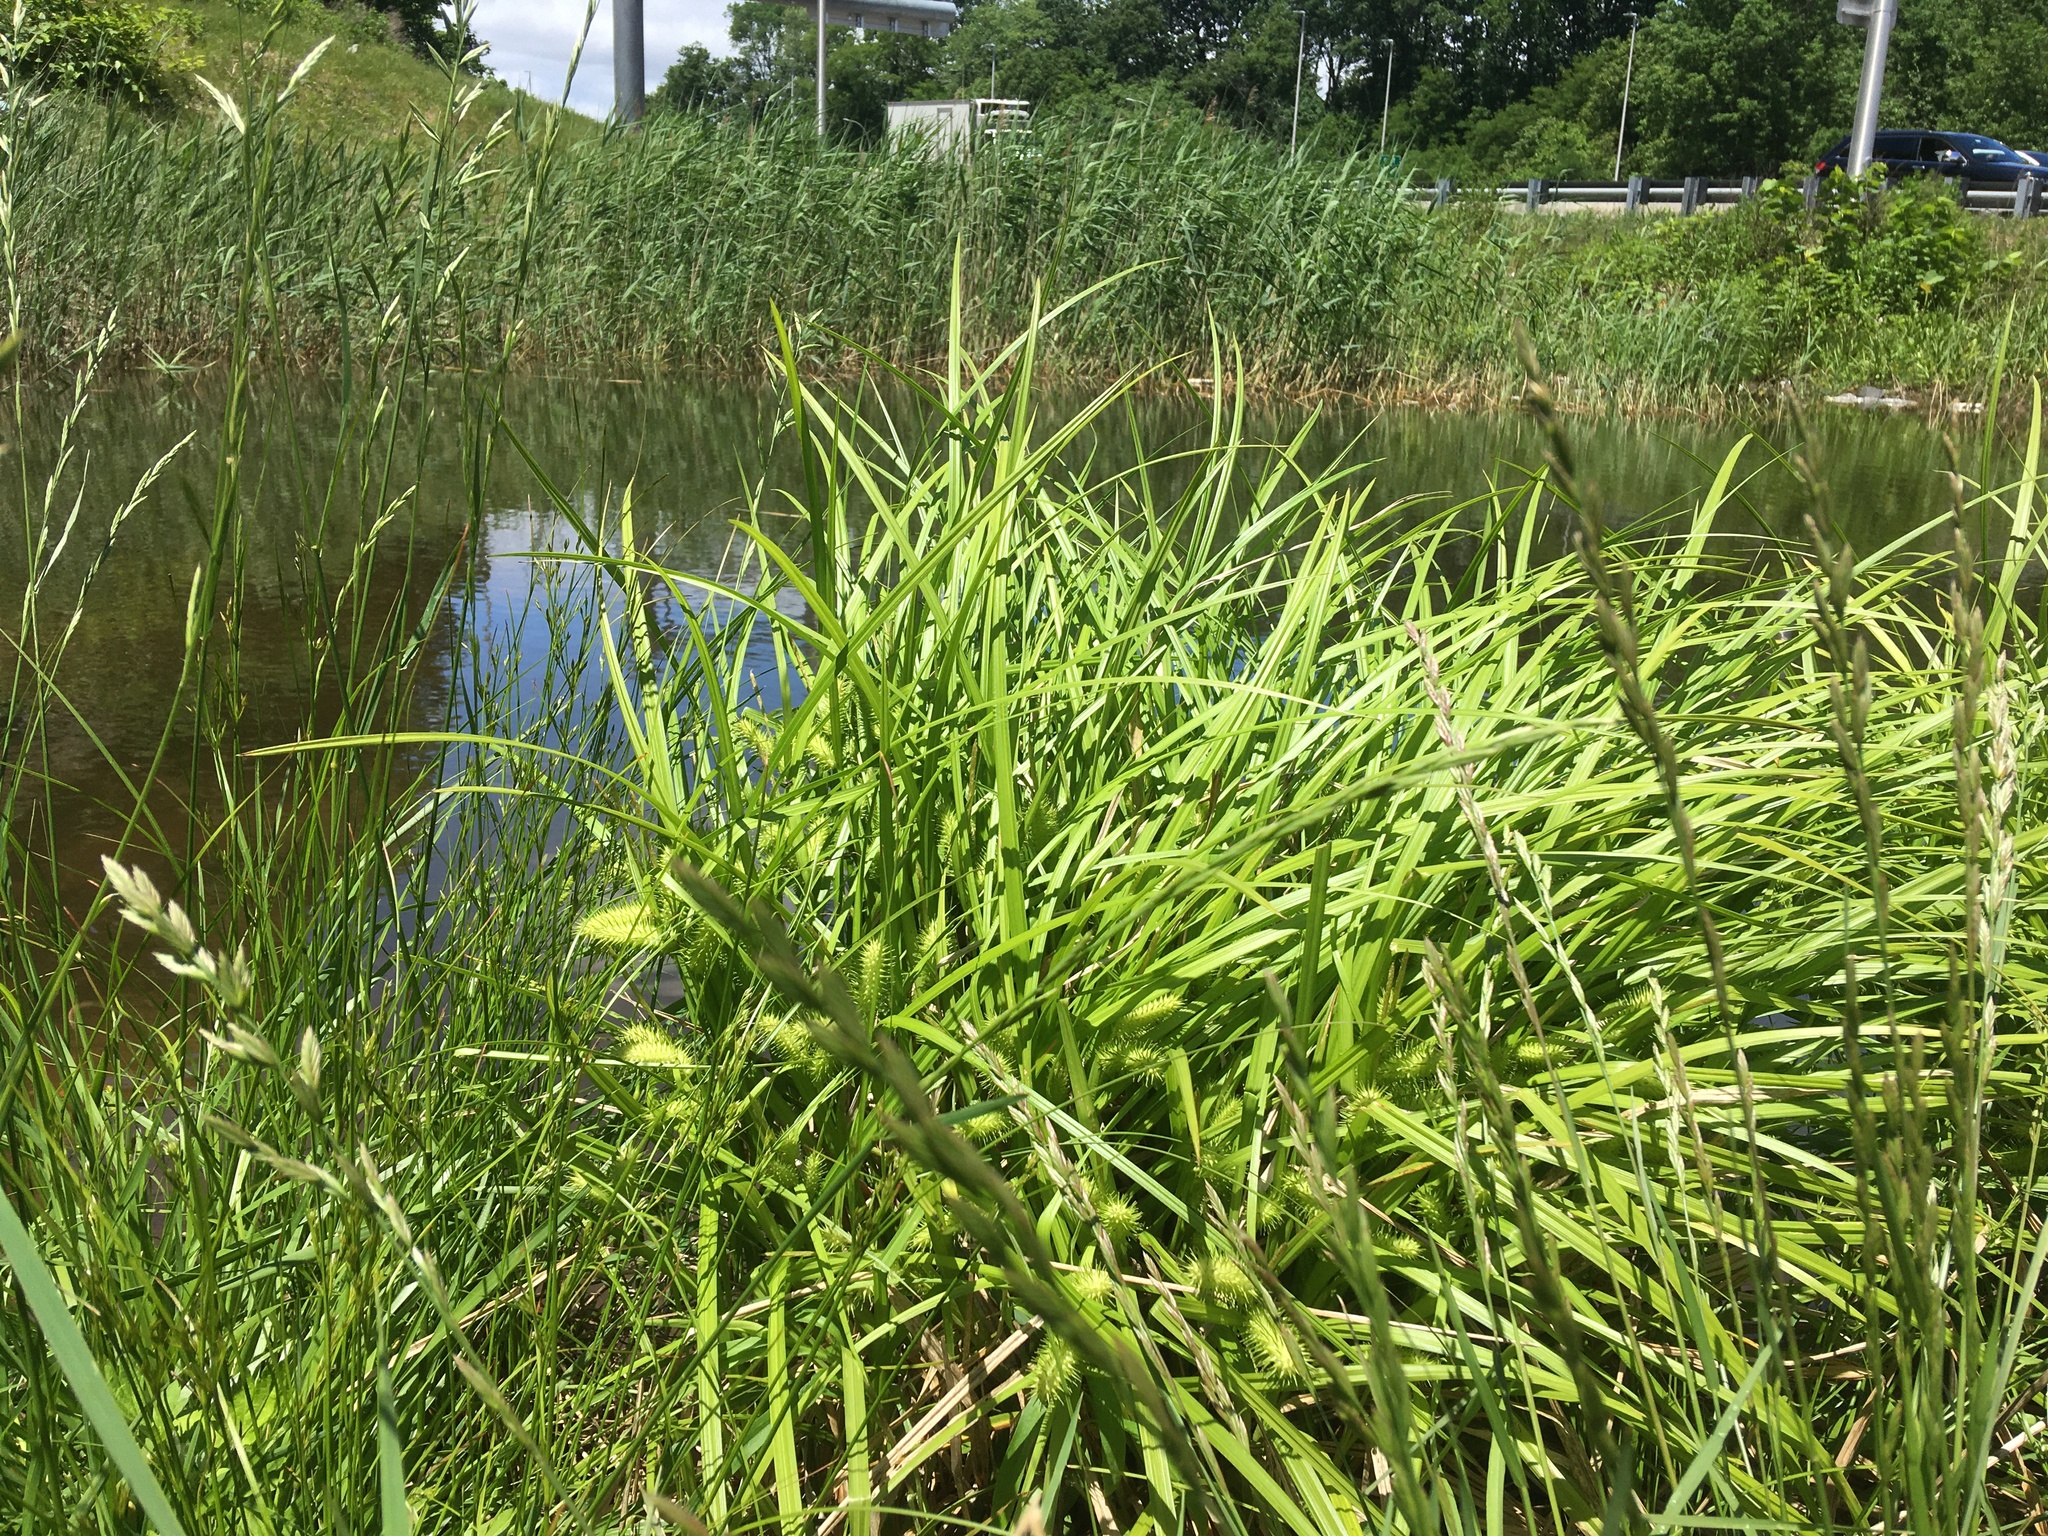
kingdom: Plantae
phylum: Tracheophyta
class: Liliopsida
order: Poales
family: Cyperaceae
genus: Carex
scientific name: Carex lurida
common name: Sallow sedge
